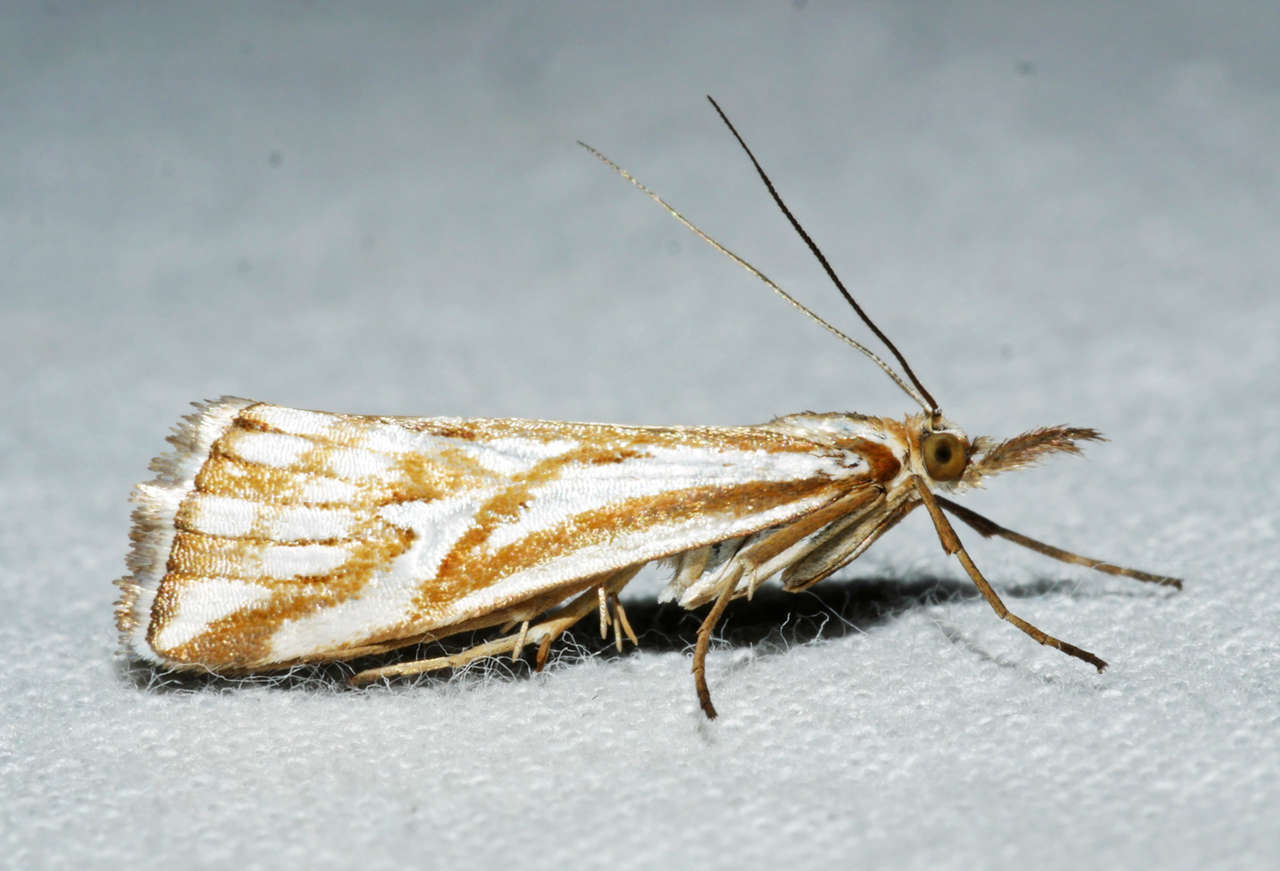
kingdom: Animalia
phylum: Arthropoda
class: Insecta
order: Lepidoptera
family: Crambidae
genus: Hednota
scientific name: Hednota pleniferellus
